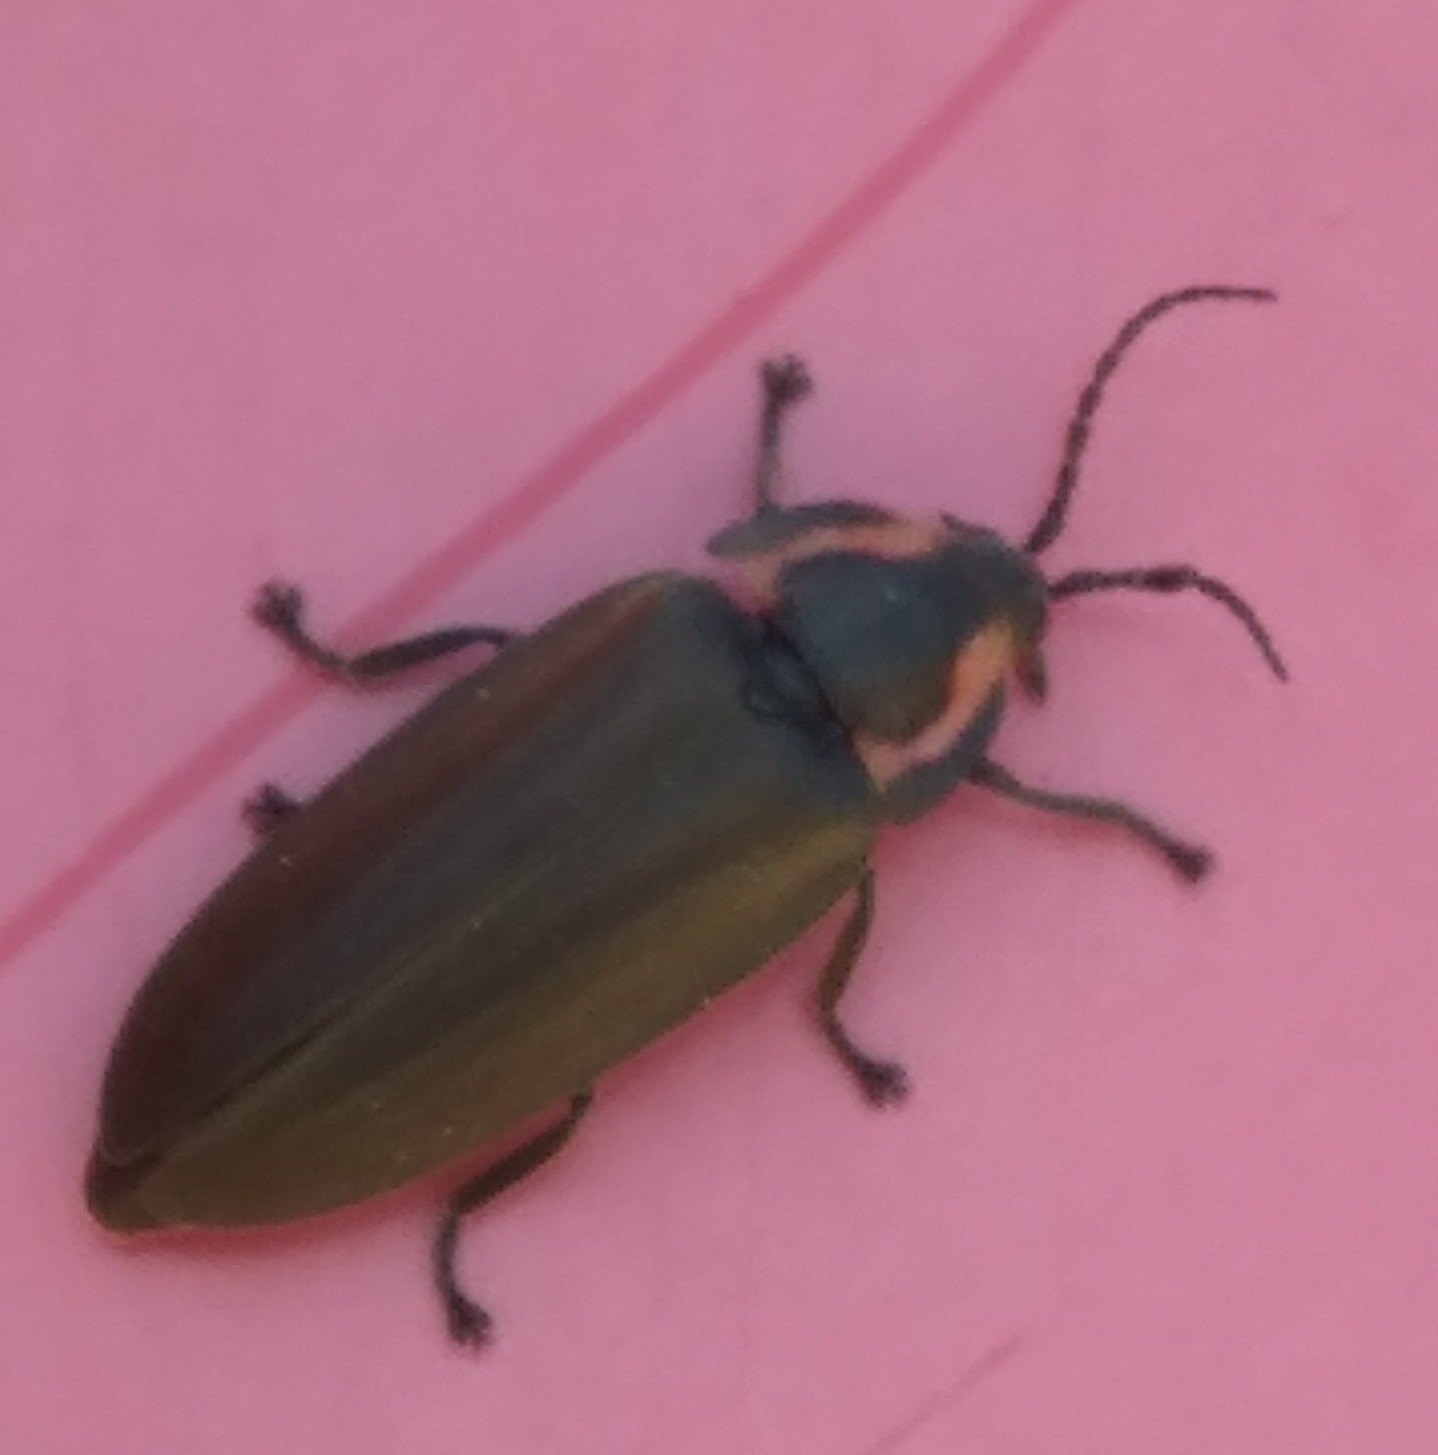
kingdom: Animalia
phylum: Arthropoda
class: Insecta
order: Coleoptera
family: Lampyridae
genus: Photinus
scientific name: Photinus corrusca
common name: Winter firefly
